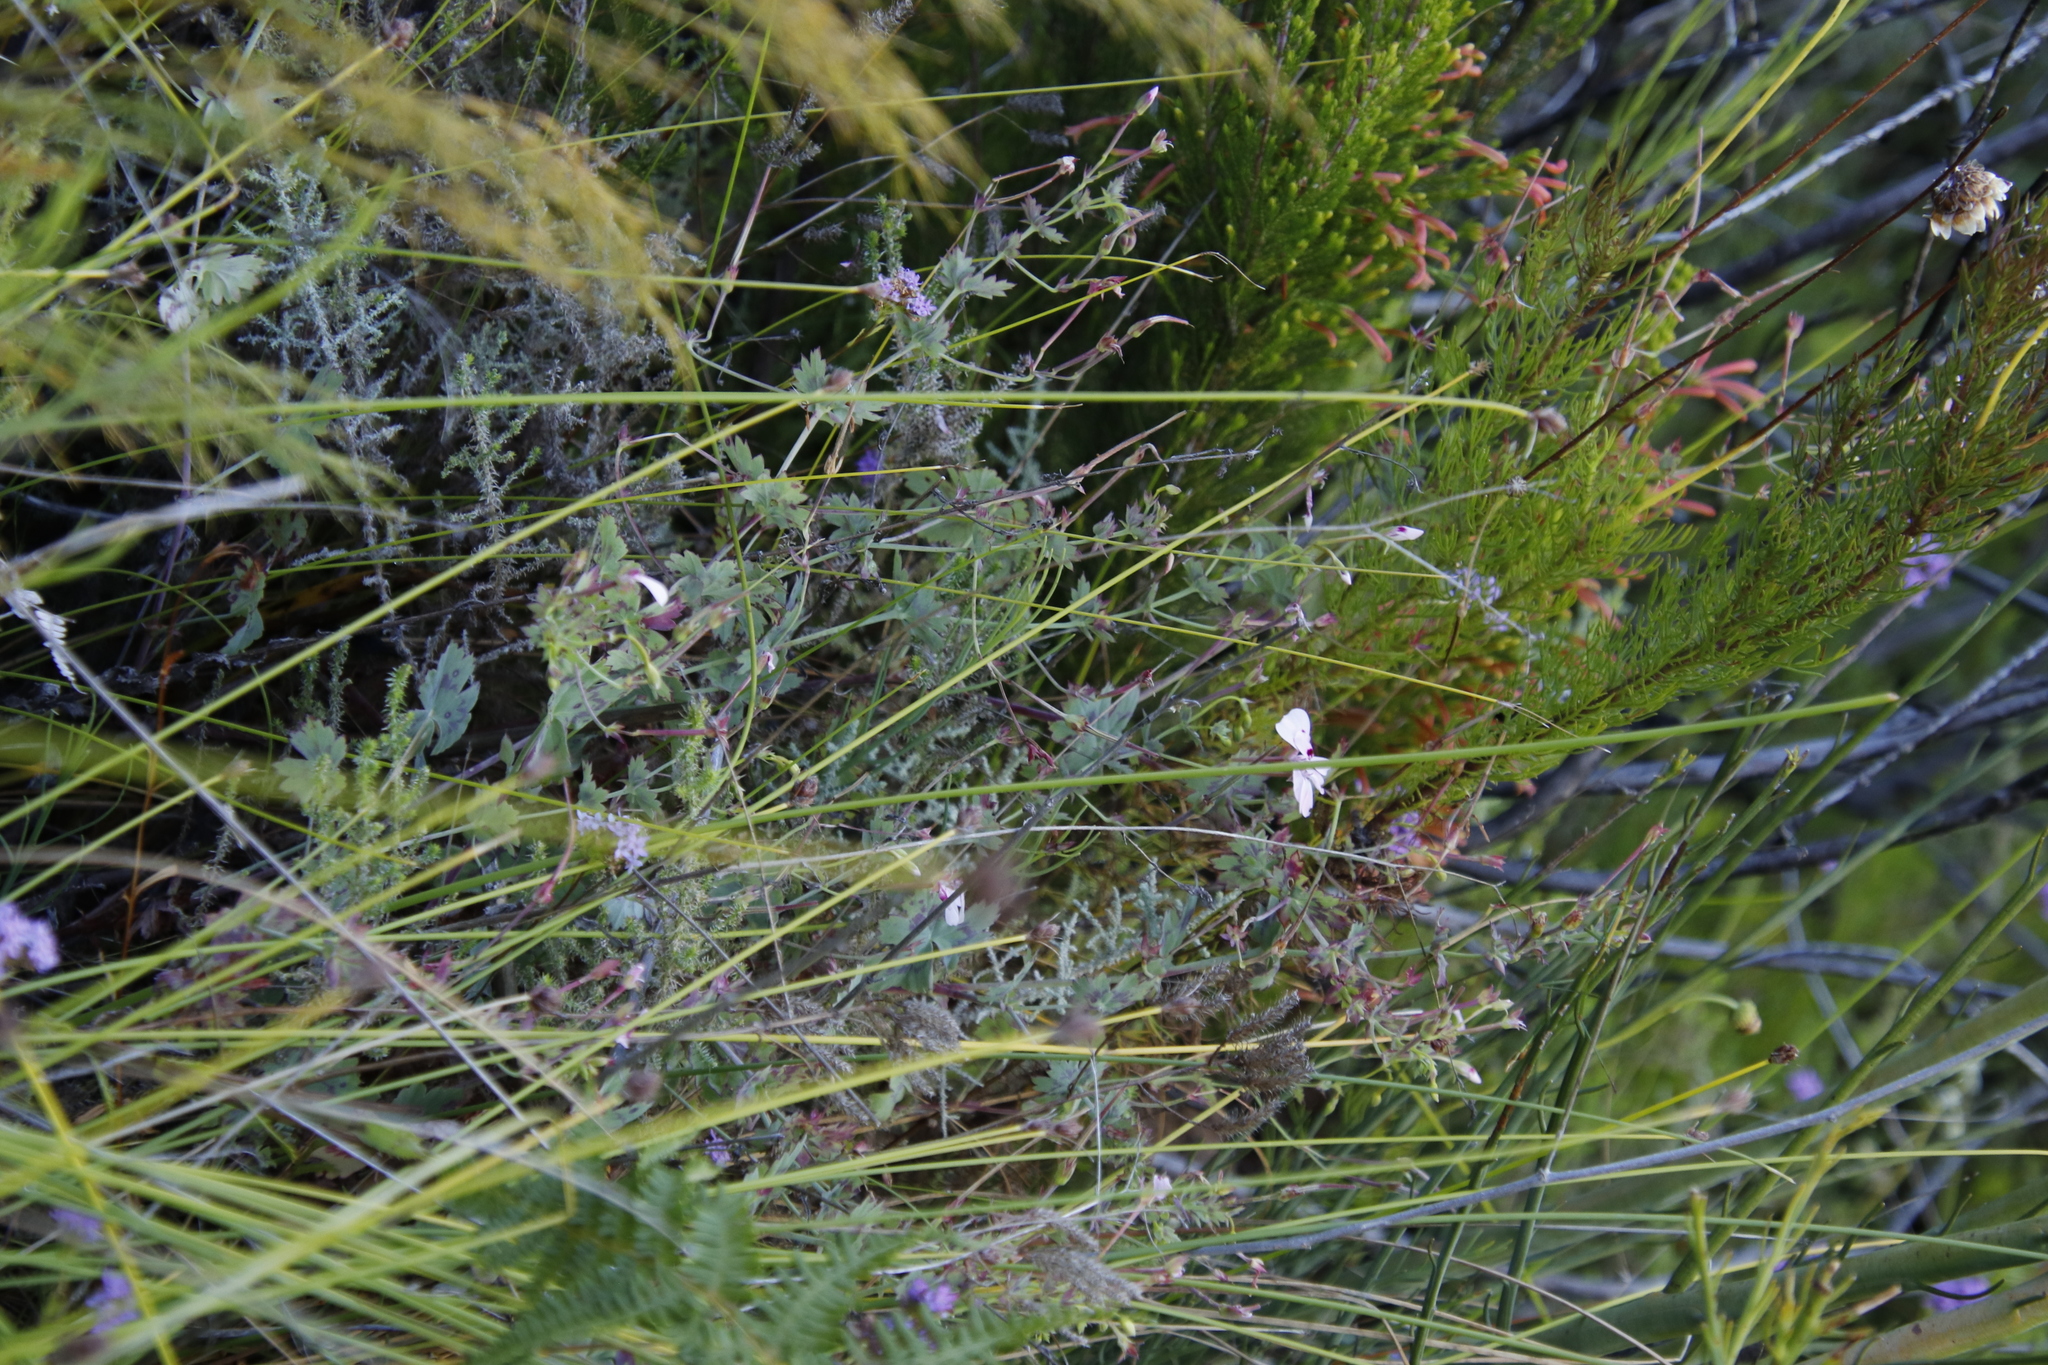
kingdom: Plantae
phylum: Tracheophyta
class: Magnoliopsida
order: Geraniales
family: Geraniaceae
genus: Pelargonium
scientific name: Pelargonium patulum
